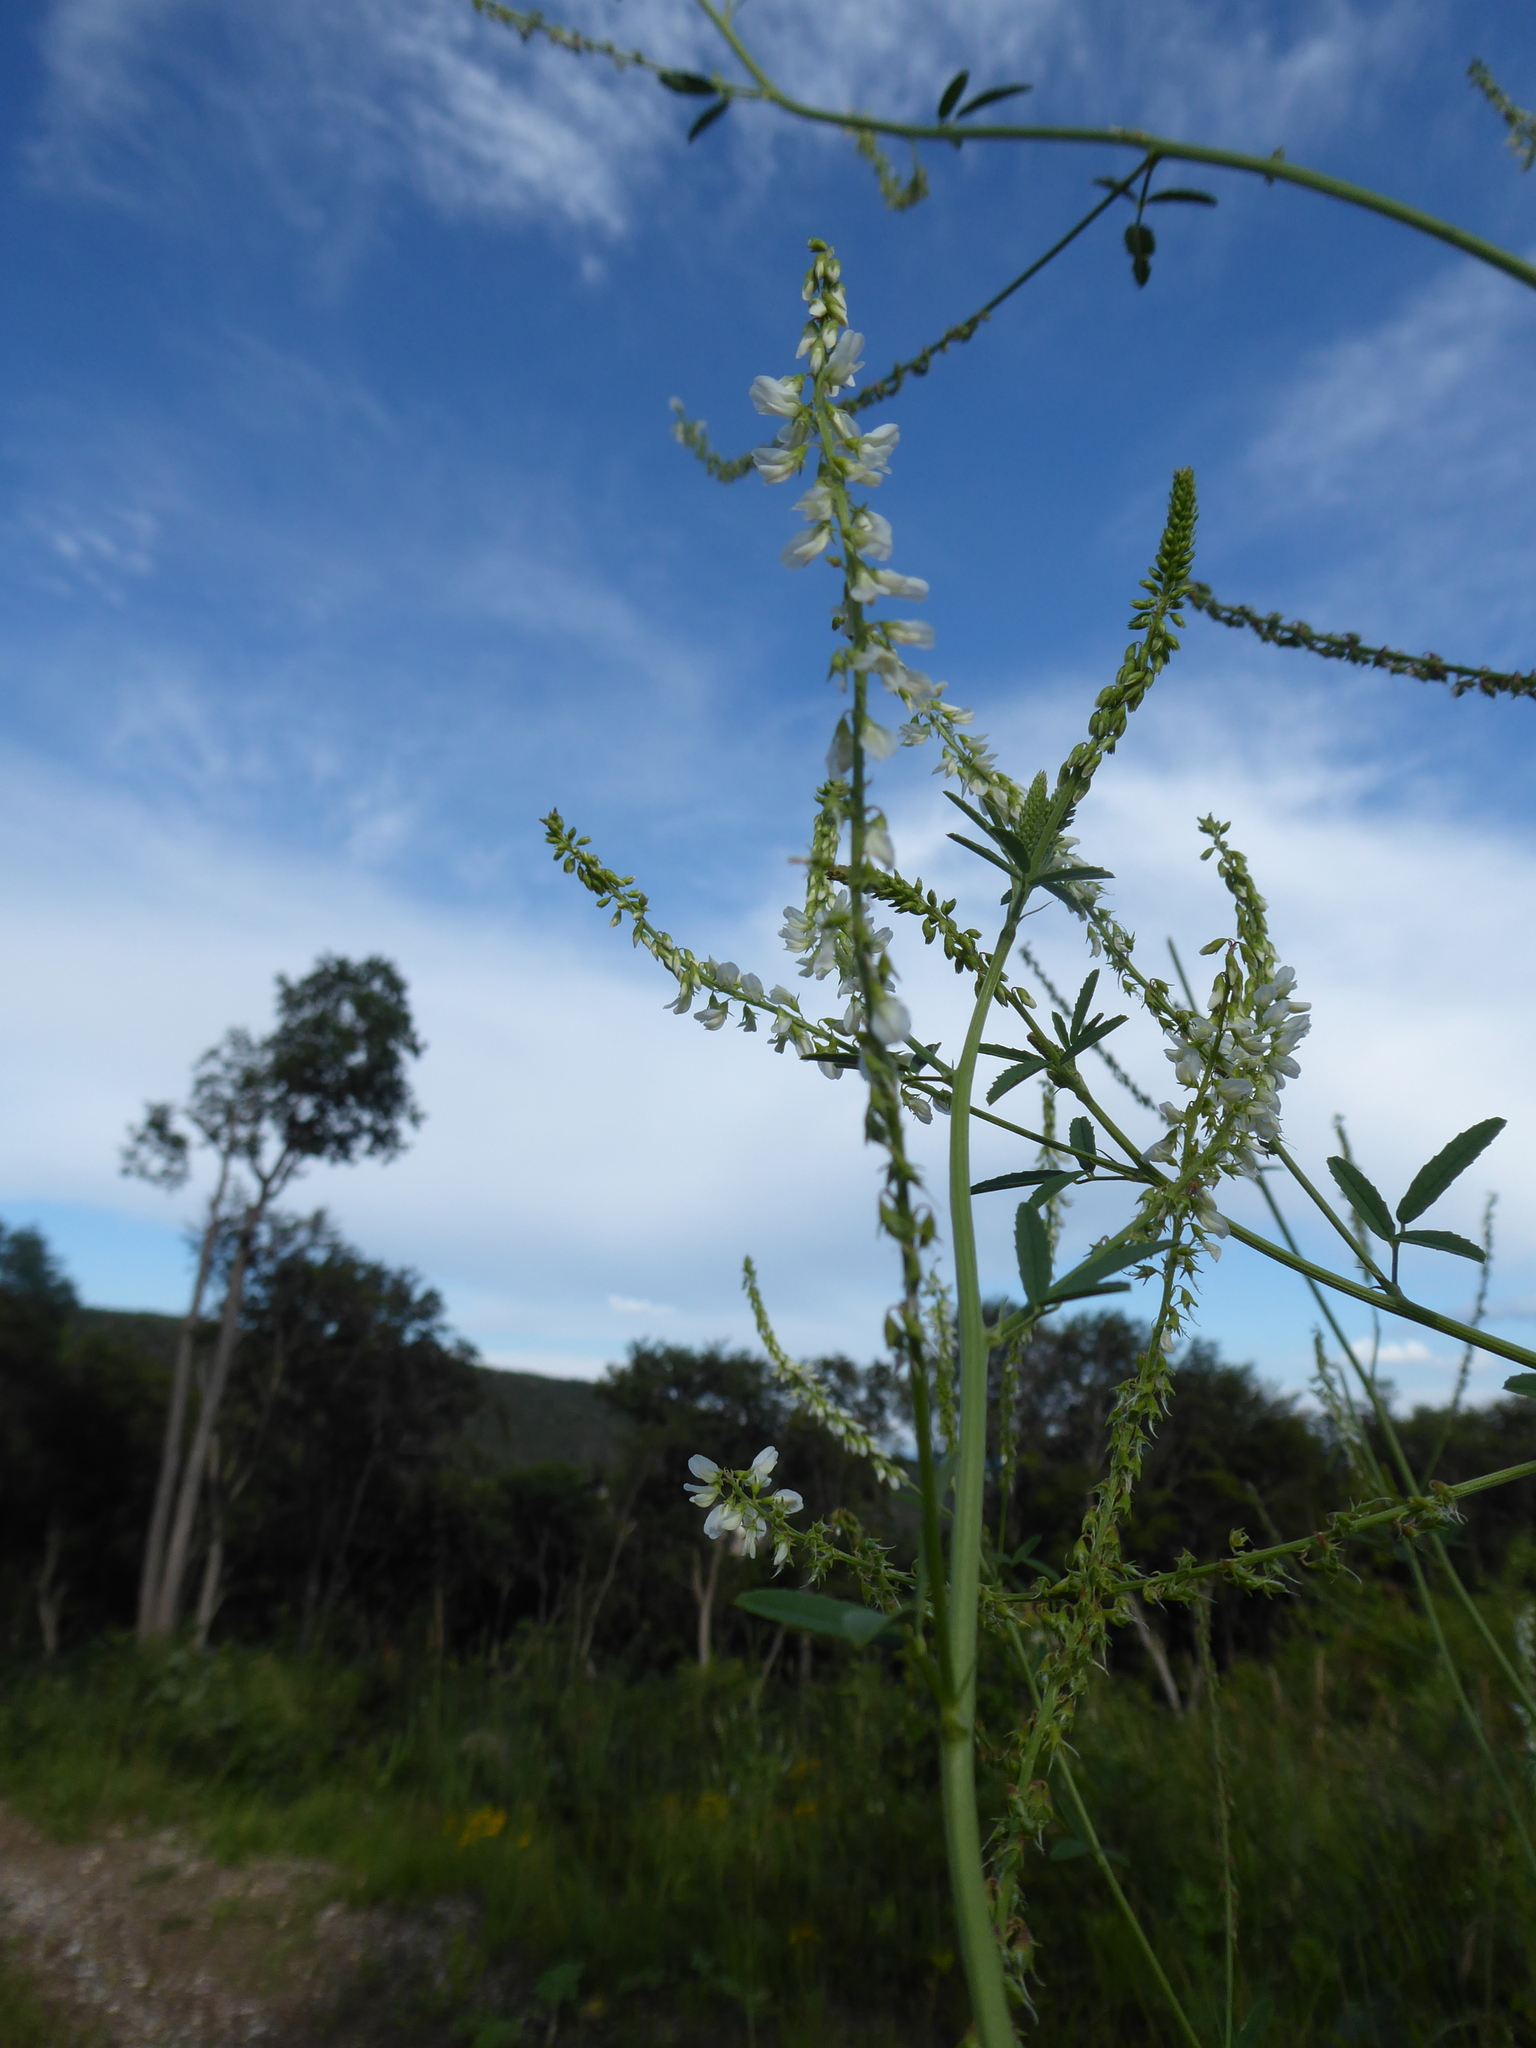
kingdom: Plantae
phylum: Tracheophyta
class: Magnoliopsida
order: Fabales
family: Fabaceae
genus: Melilotus
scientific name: Melilotus albus
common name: White melilot
